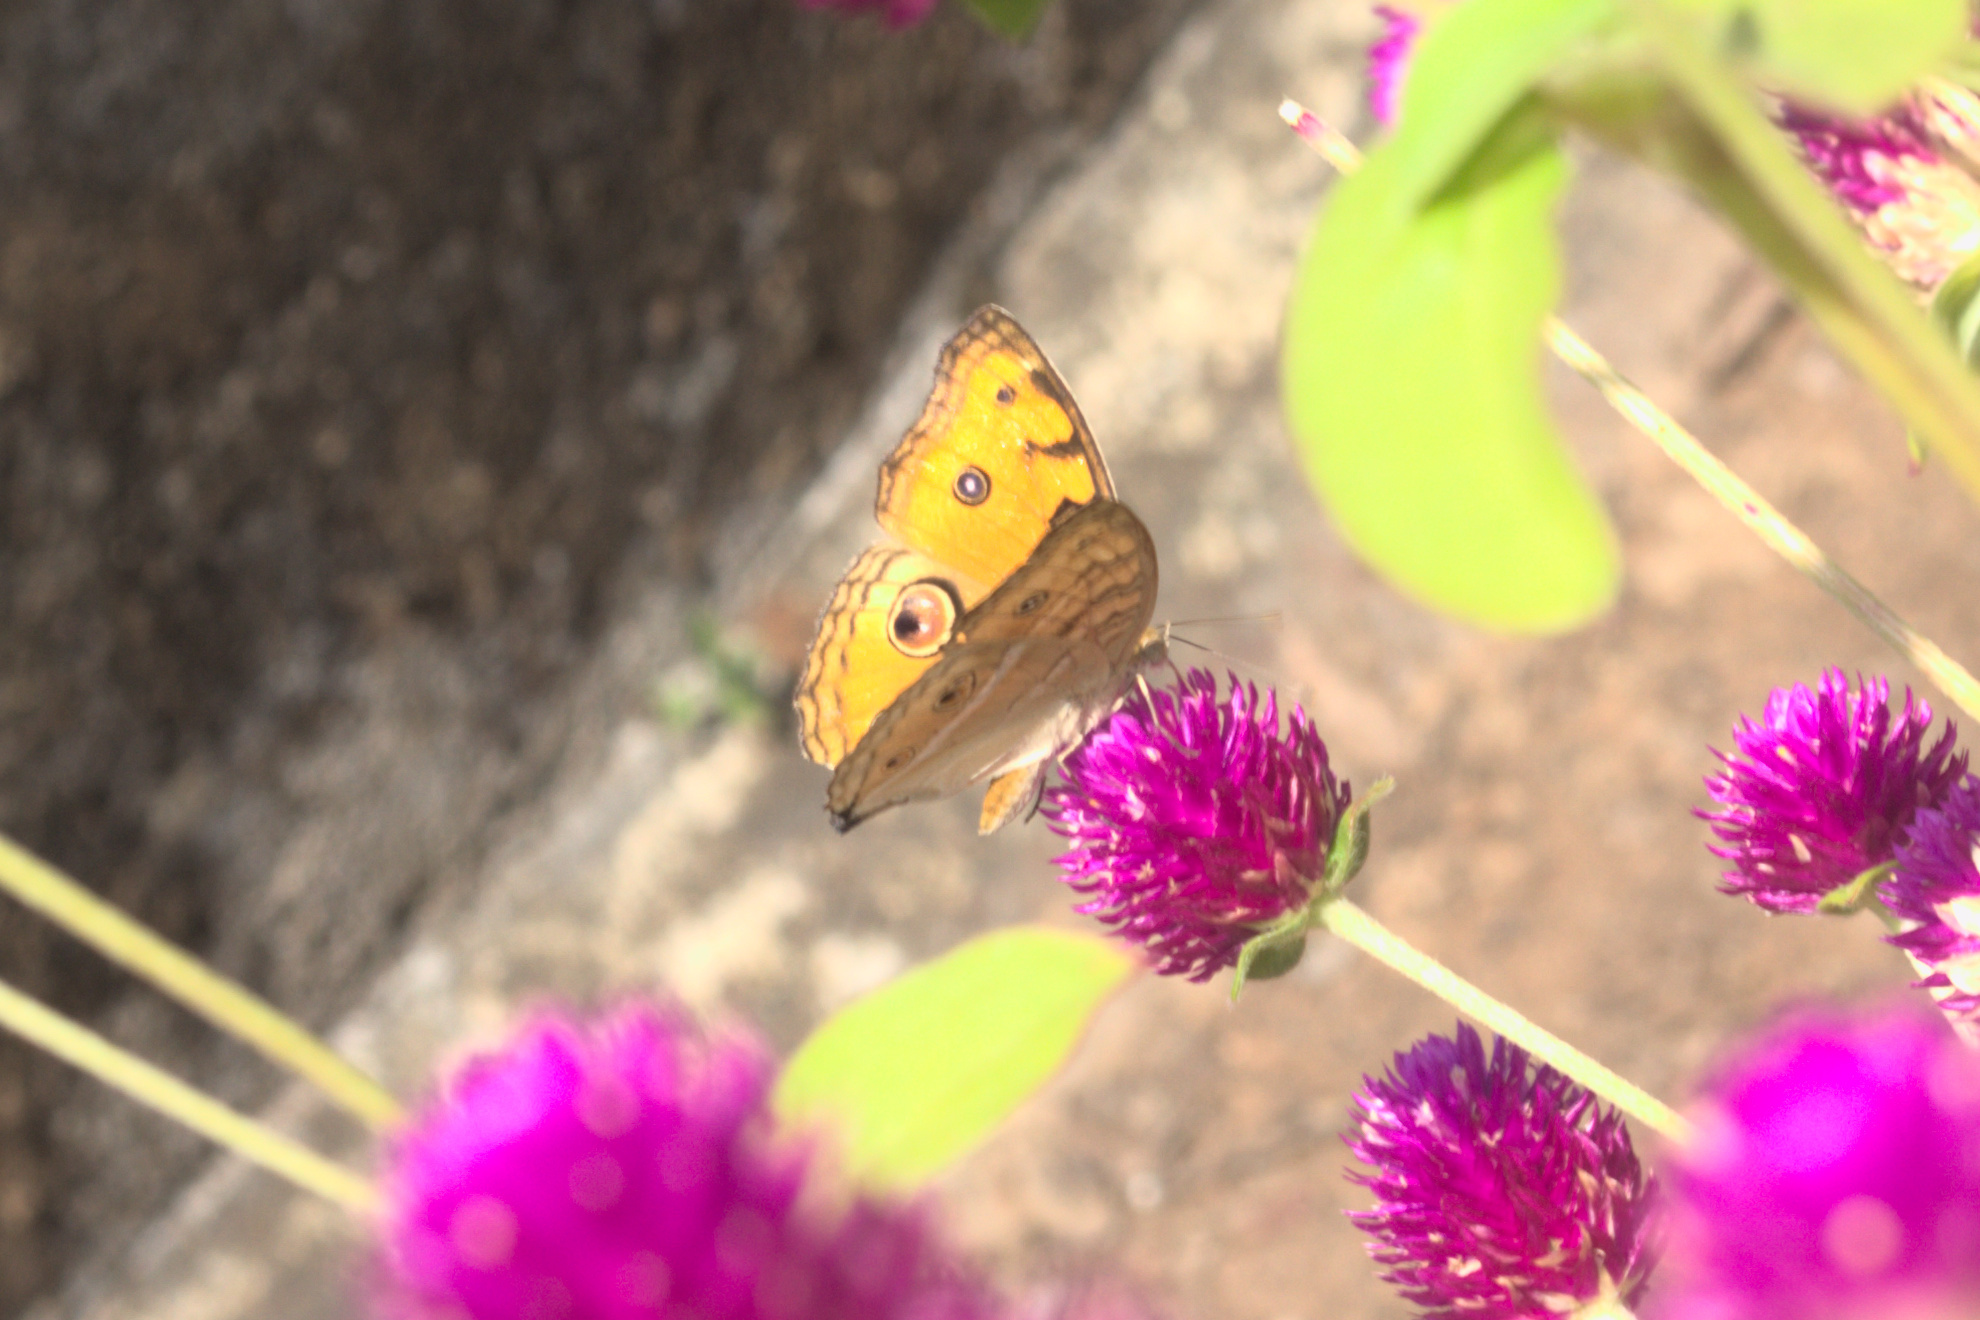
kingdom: Animalia
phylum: Arthropoda
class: Insecta
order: Lepidoptera
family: Nymphalidae
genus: Junonia
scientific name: Junonia almana
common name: Peacock pansy
